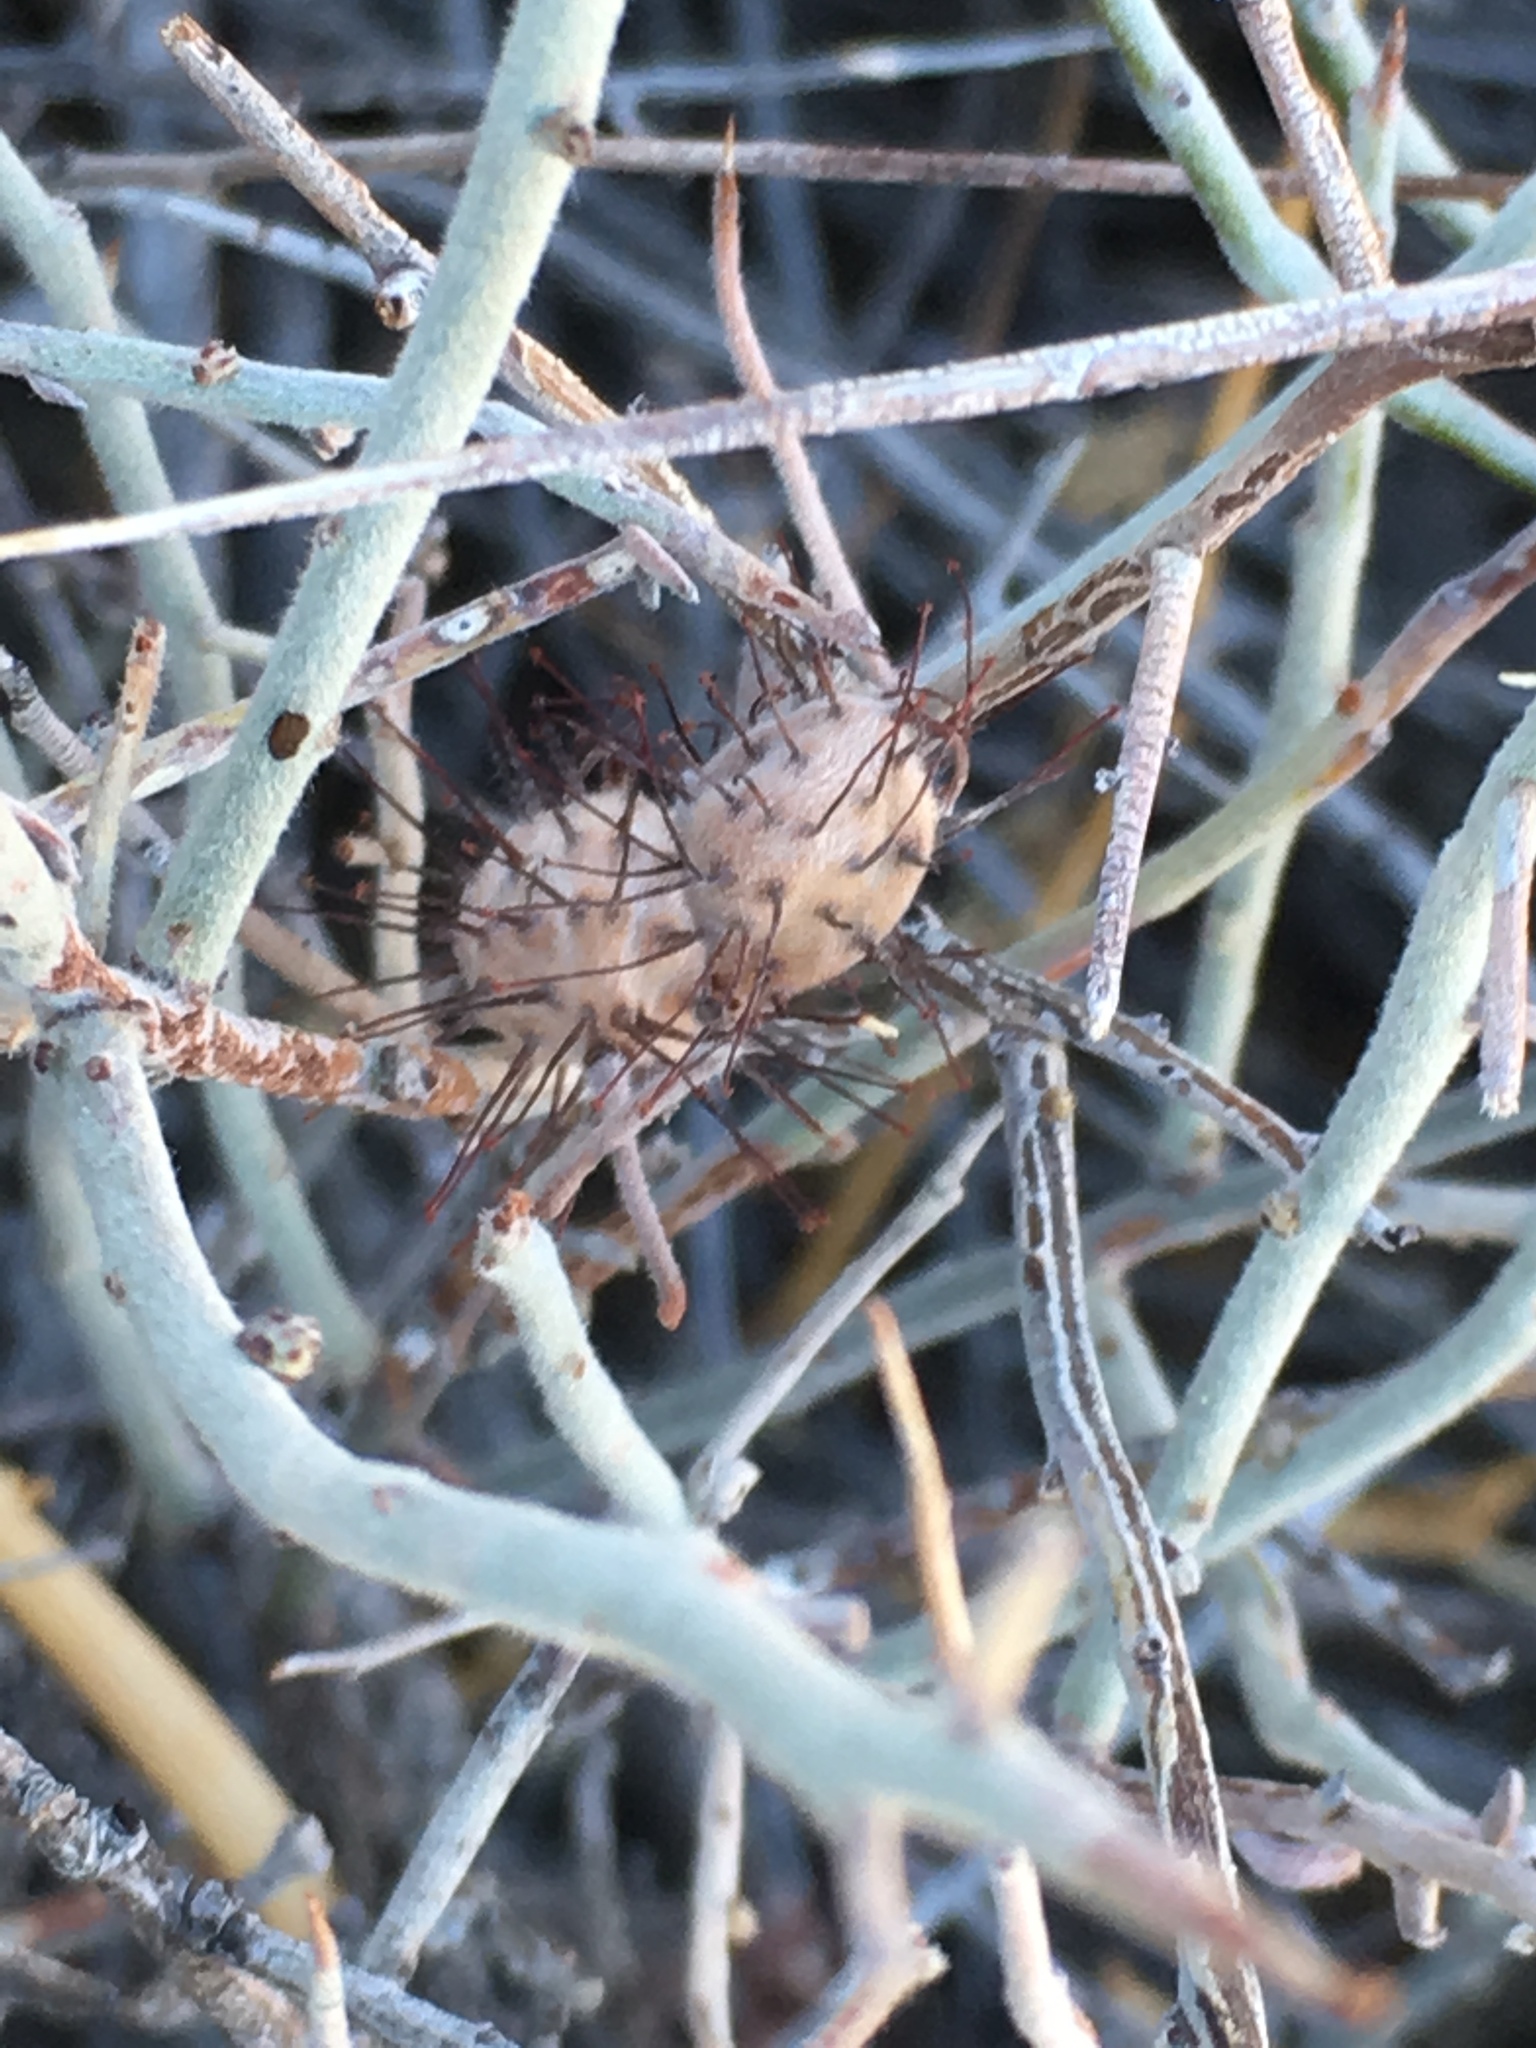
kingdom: Plantae
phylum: Tracheophyta
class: Magnoliopsida
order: Zygophyllales
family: Krameriaceae
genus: Krameria
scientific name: Krameria bicolor
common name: White ratany
